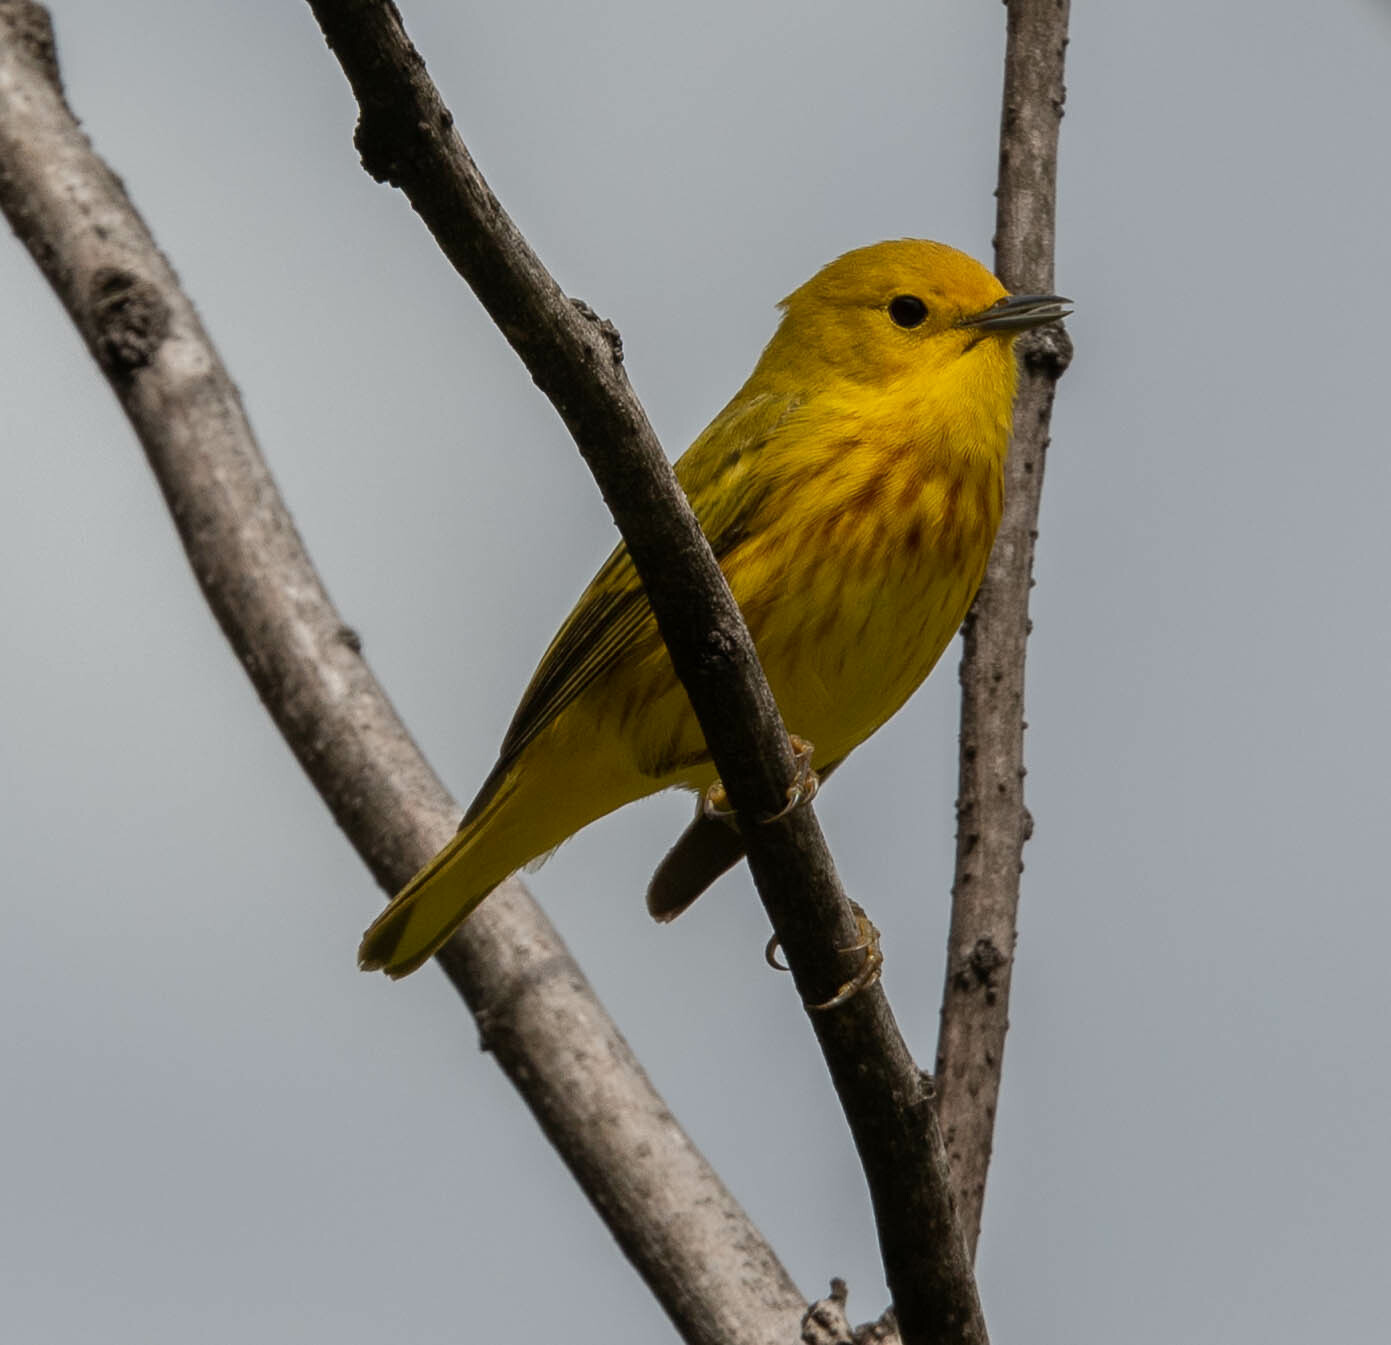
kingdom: Animalia
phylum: Chordata
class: Aves
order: Passeriformes
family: Parulidae
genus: Setophaga
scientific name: Setophaga petechia
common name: Yellow warbler
